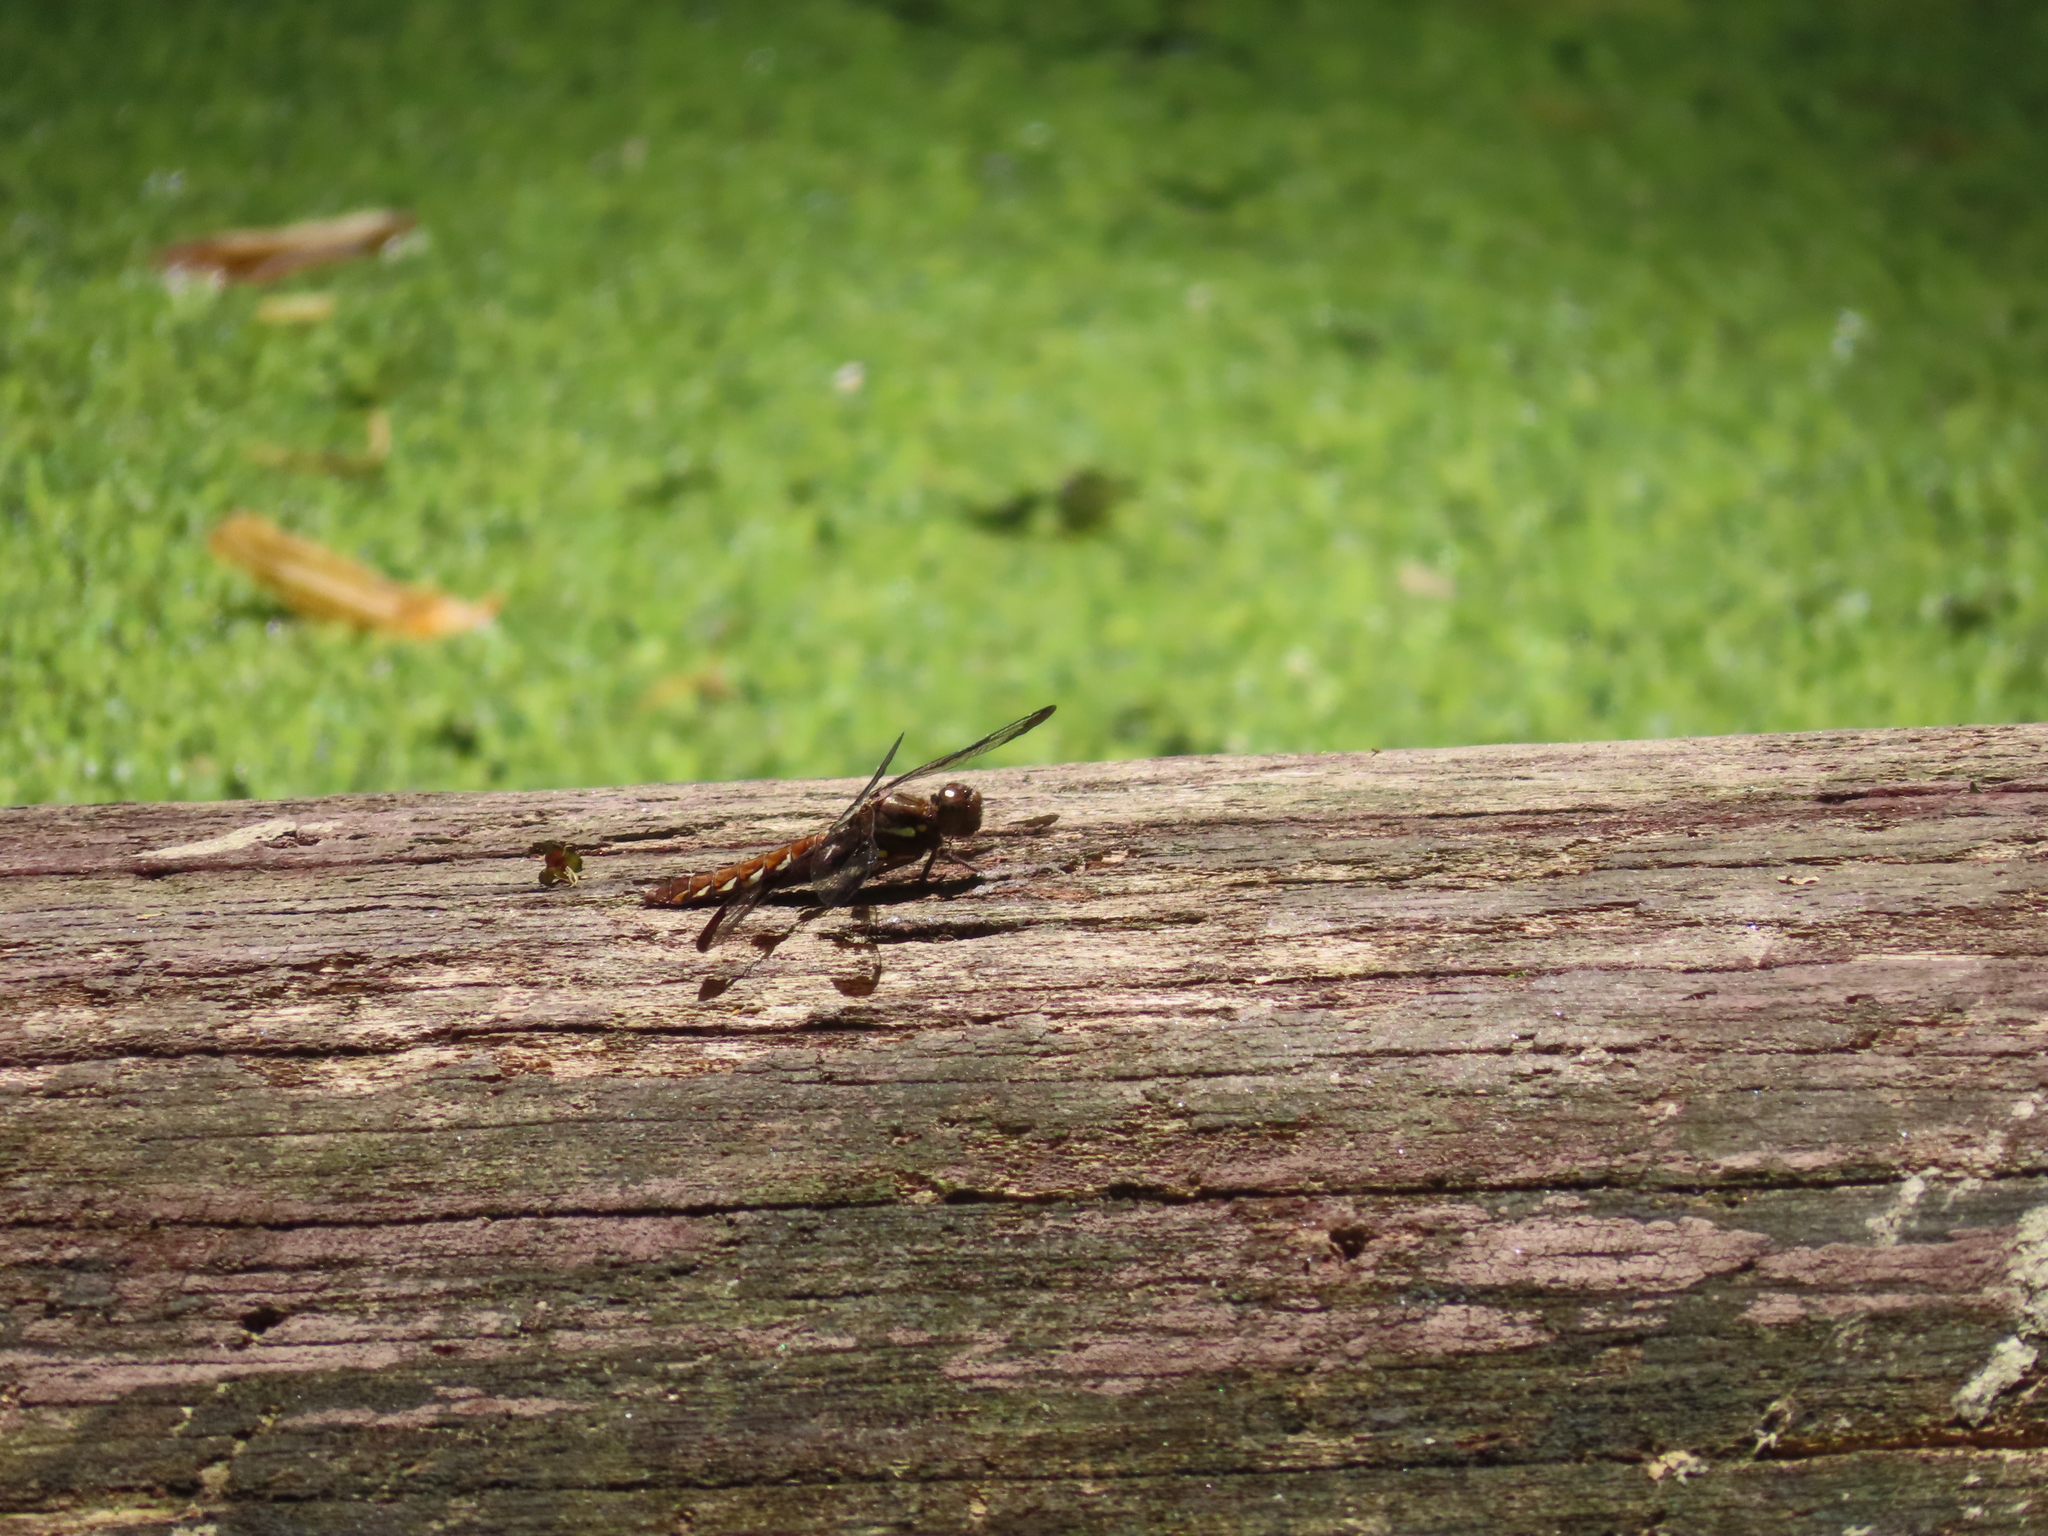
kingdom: Animalia
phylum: Arthropoda
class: Insecta
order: Odonata
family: Libellulidae
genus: Plathemis
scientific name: Plathemis lydia
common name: Common whitetail
